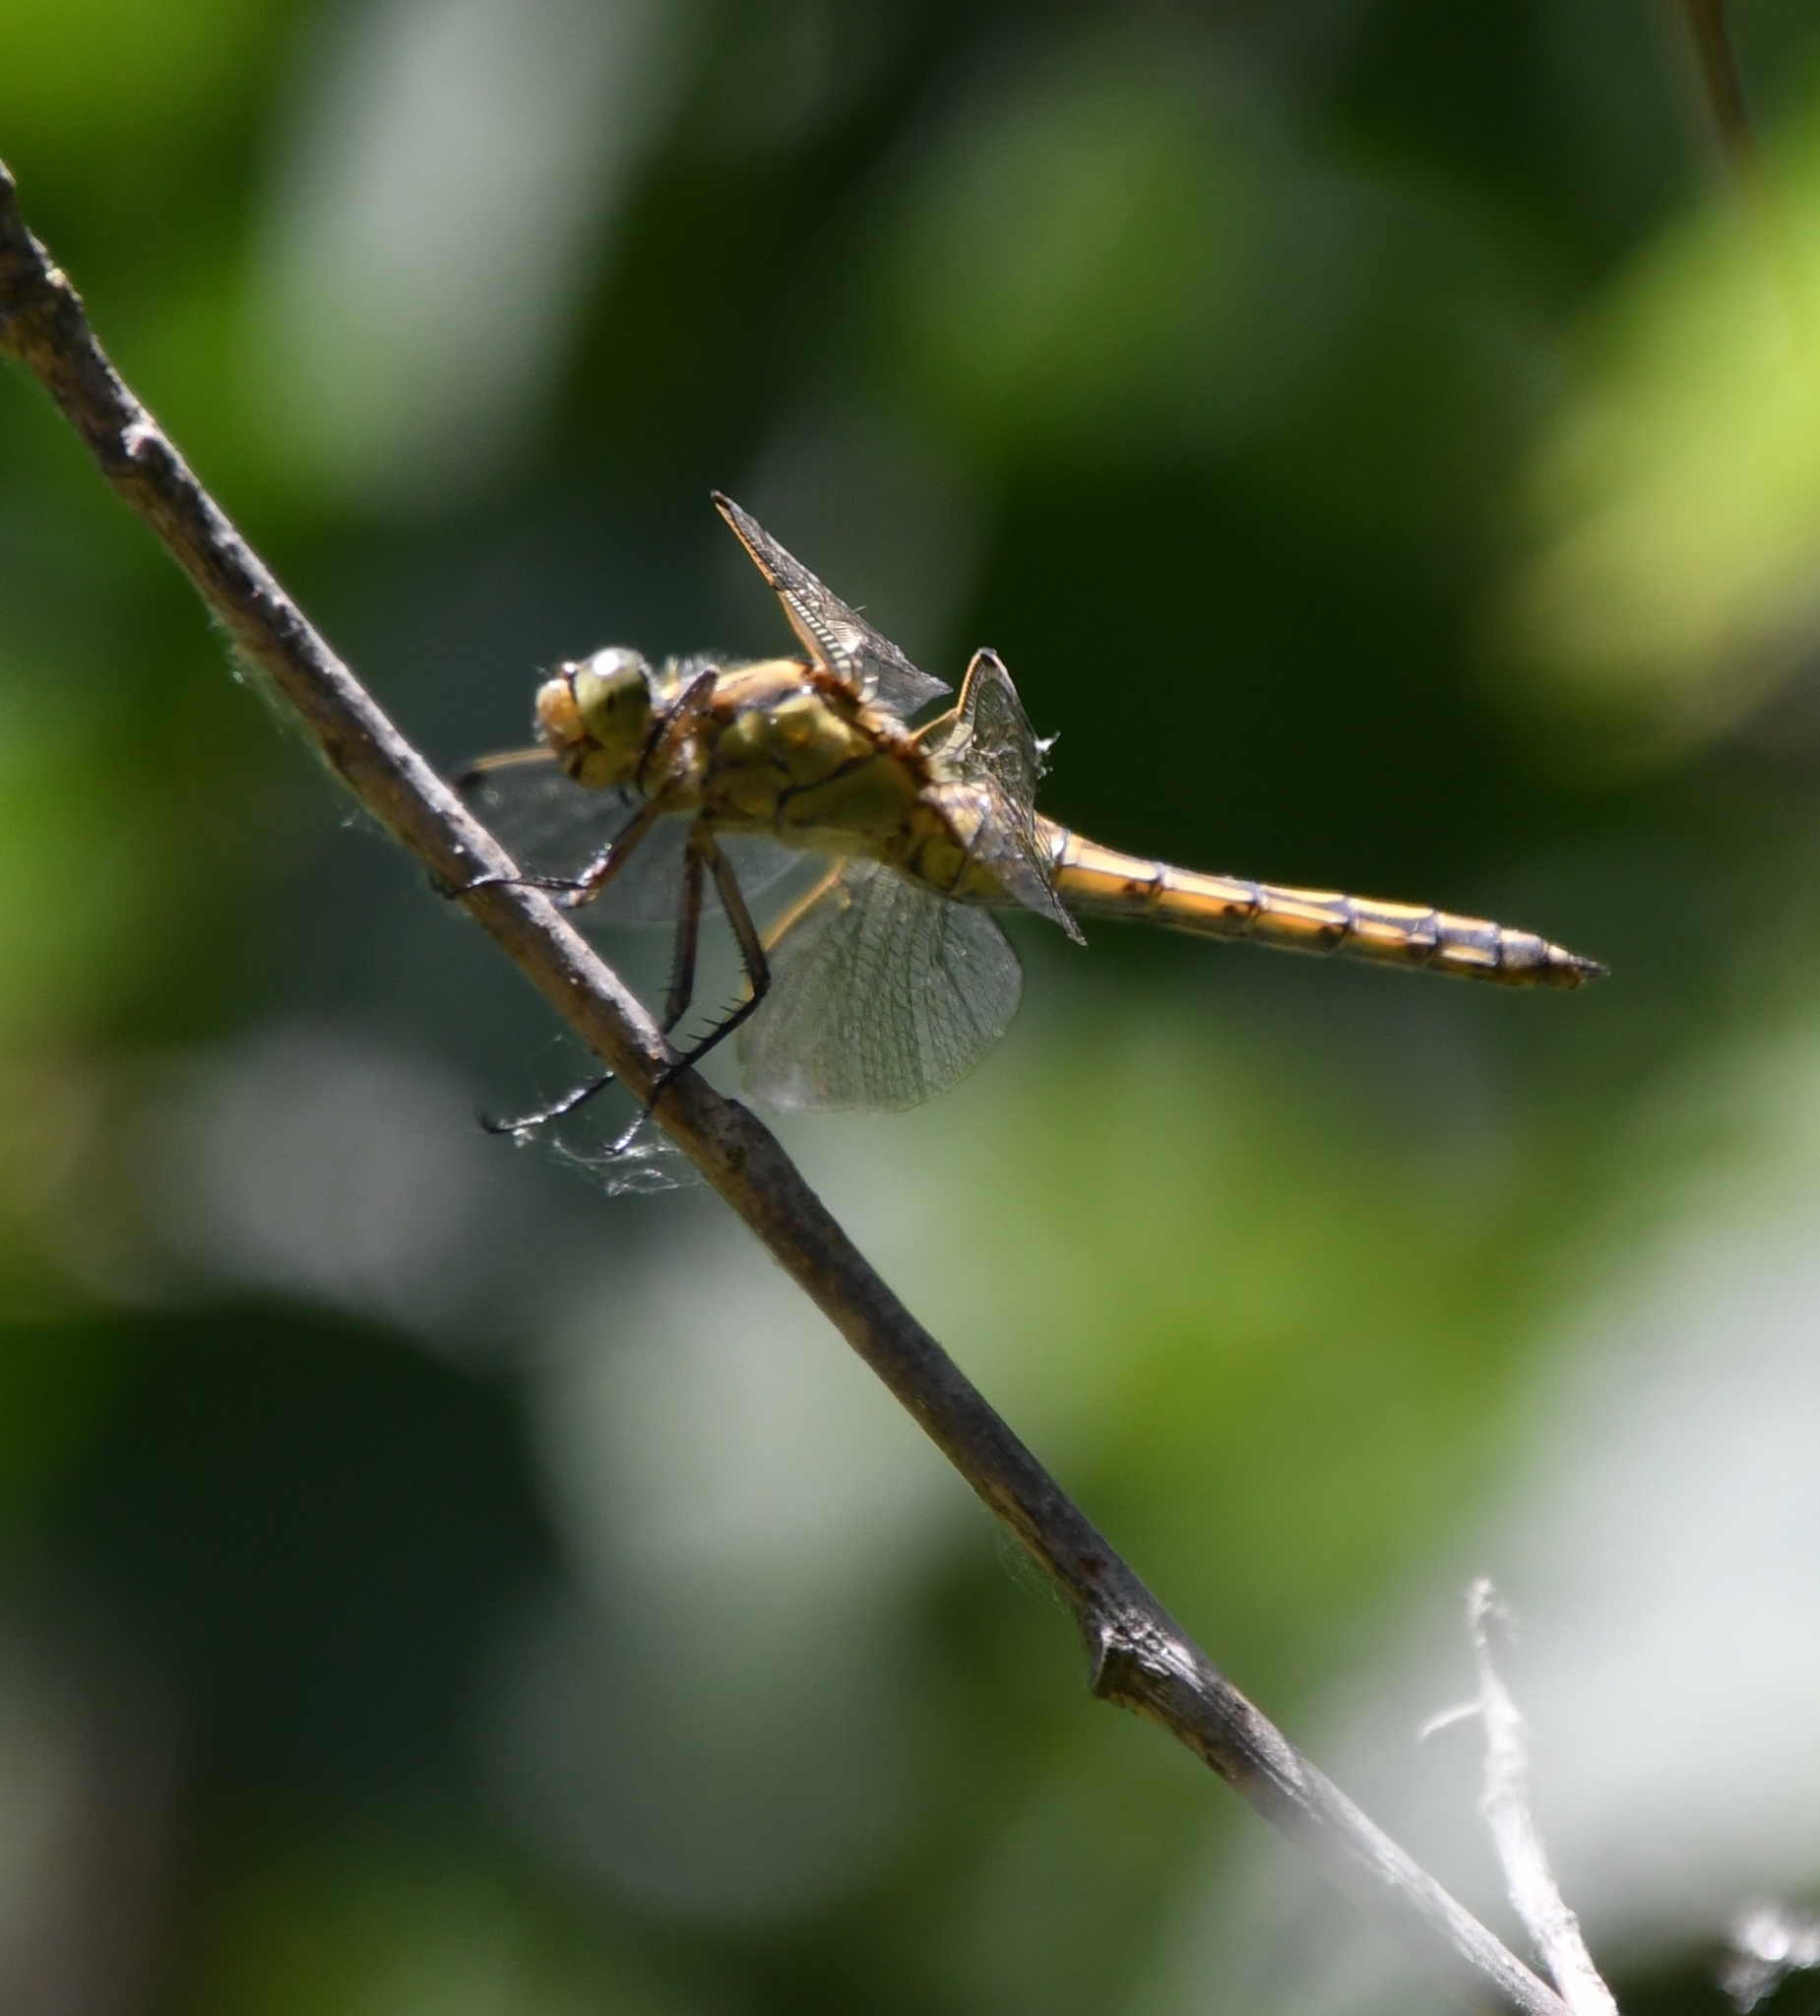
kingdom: Animalia
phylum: Arthropoda
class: Insecta
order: Odonata
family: Libellulidae
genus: Orthetrum
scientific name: Orthetrum cancellatum
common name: Black-tailed skimmer
